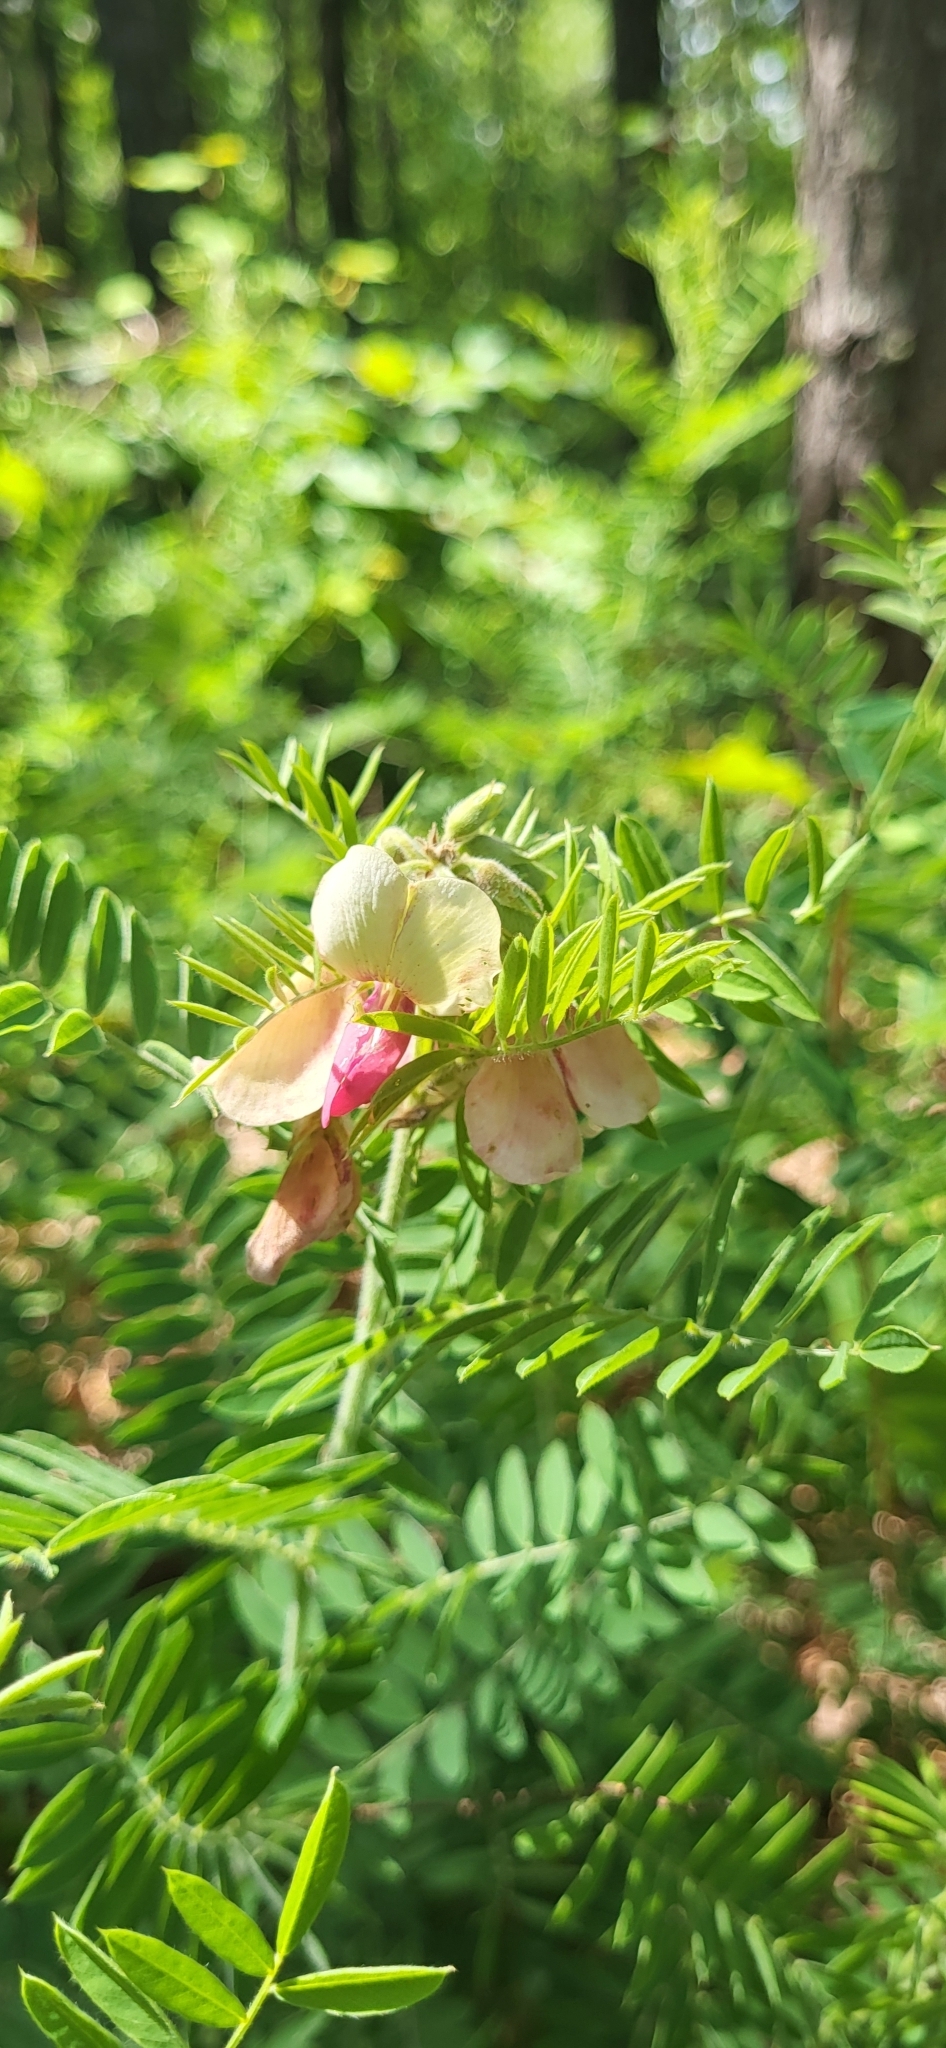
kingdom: Plantae
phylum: Tracheophyta
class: Magnoliopsida
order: Fabales
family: Fabaceae
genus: Tephrosia
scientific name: Tephrosia virginiana
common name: Rabbit-pea
